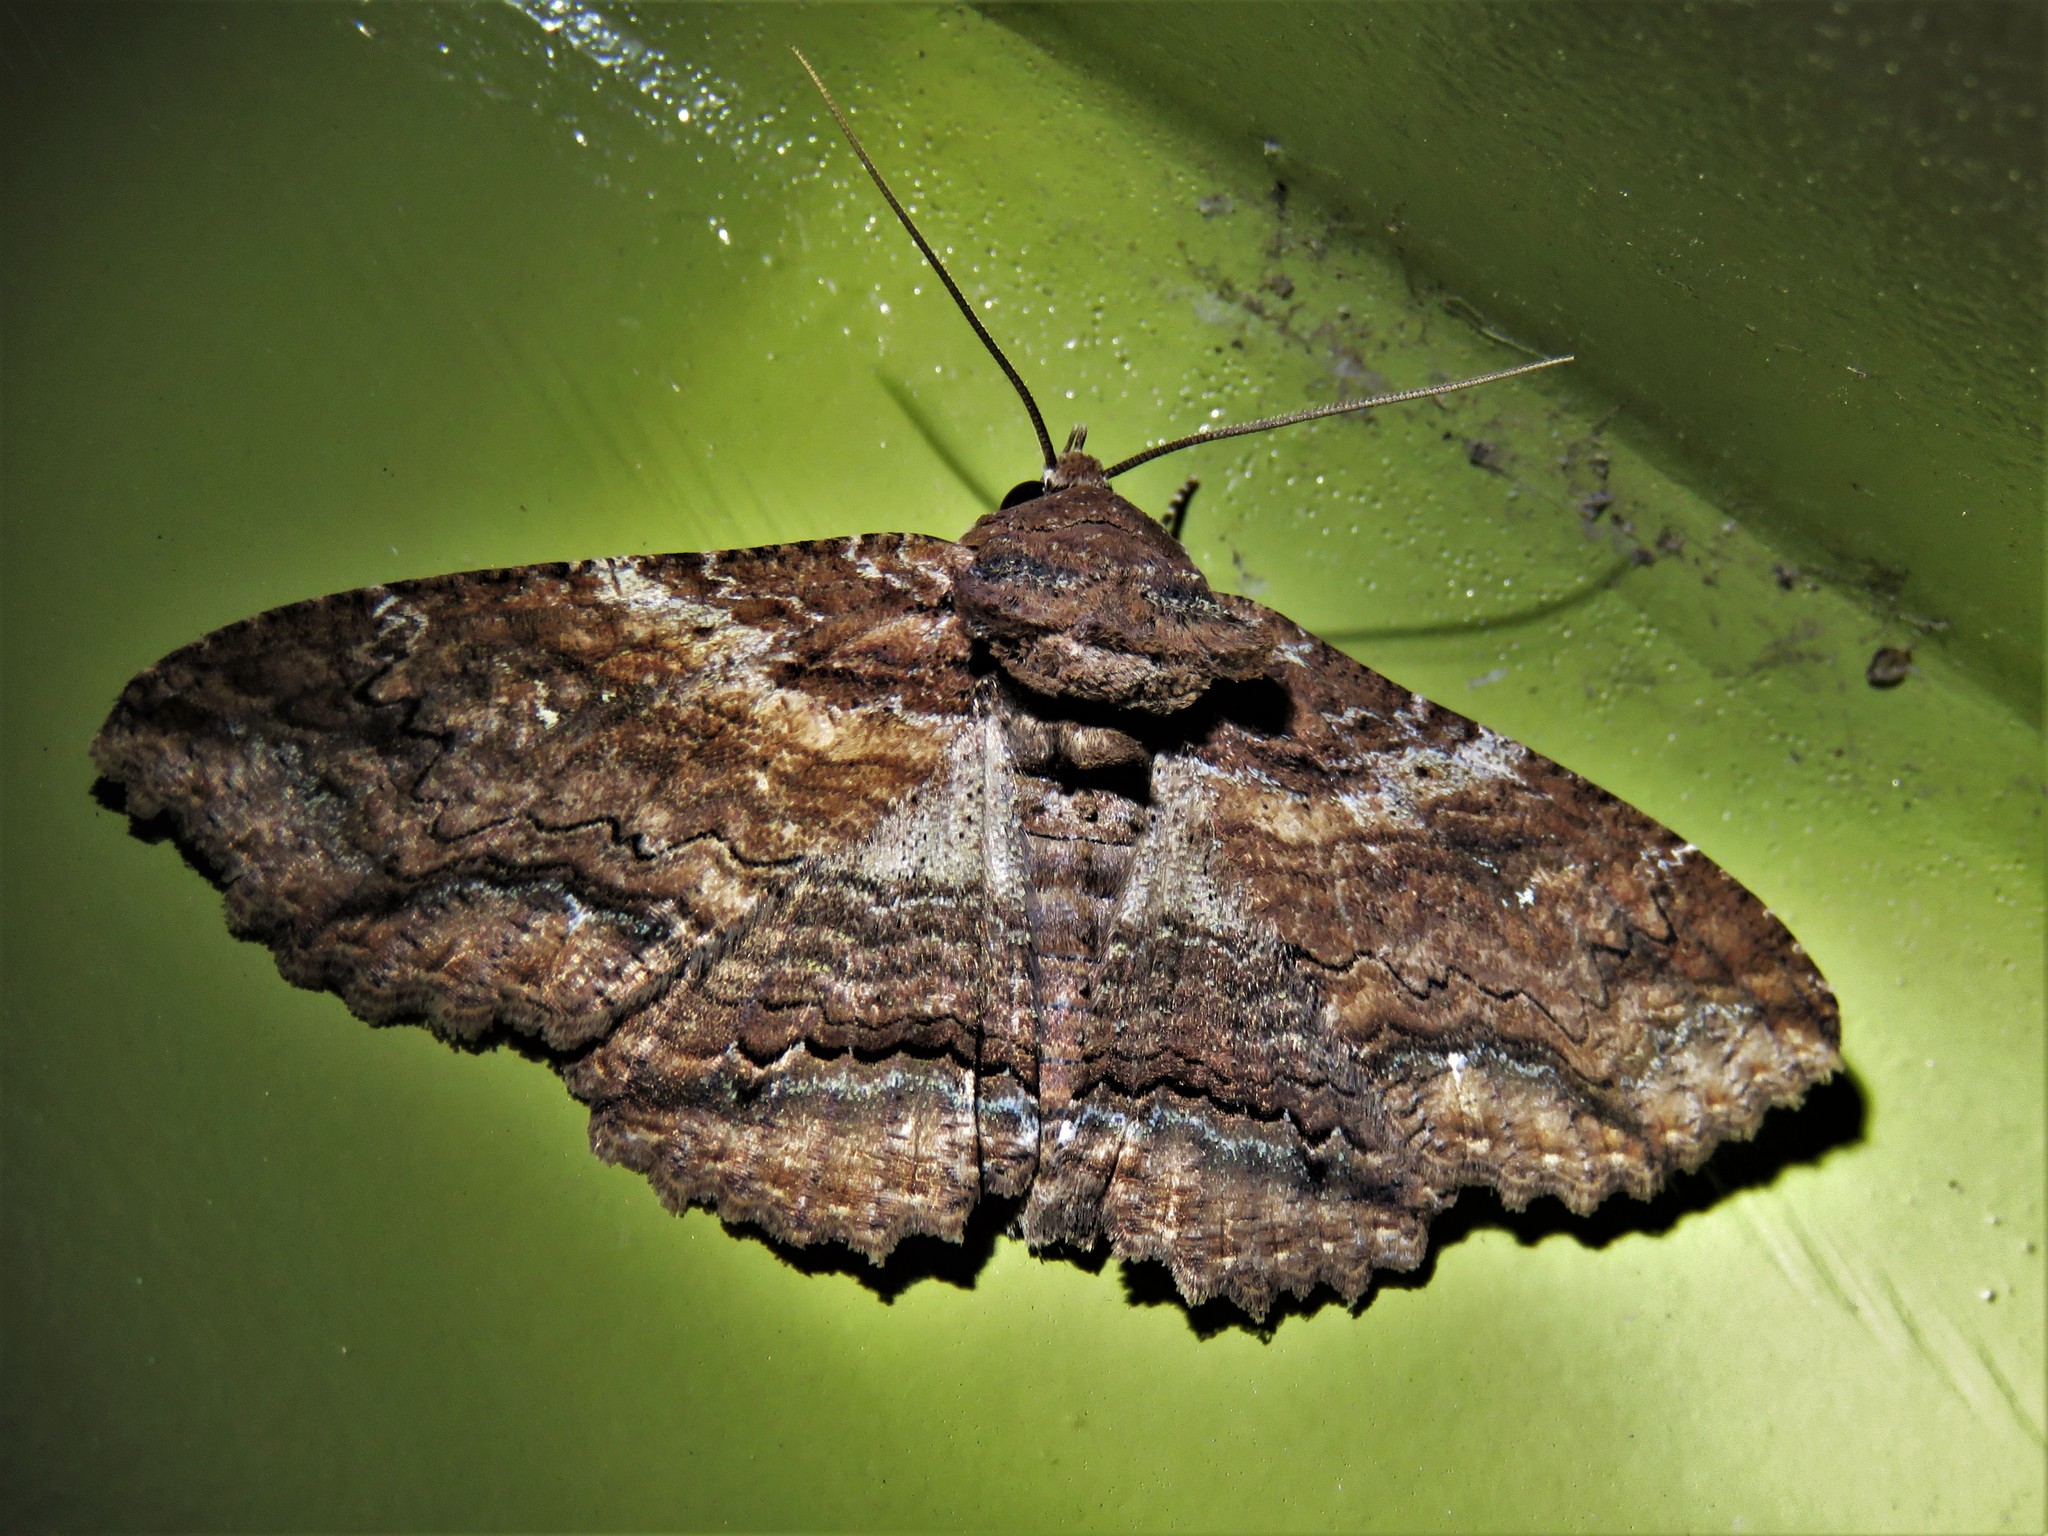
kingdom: Animalia
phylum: Arthropoda
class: Insecta
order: Lepidoptera
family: Erebidae
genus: Zale
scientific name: Zale lunata
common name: Lunate zale moth
